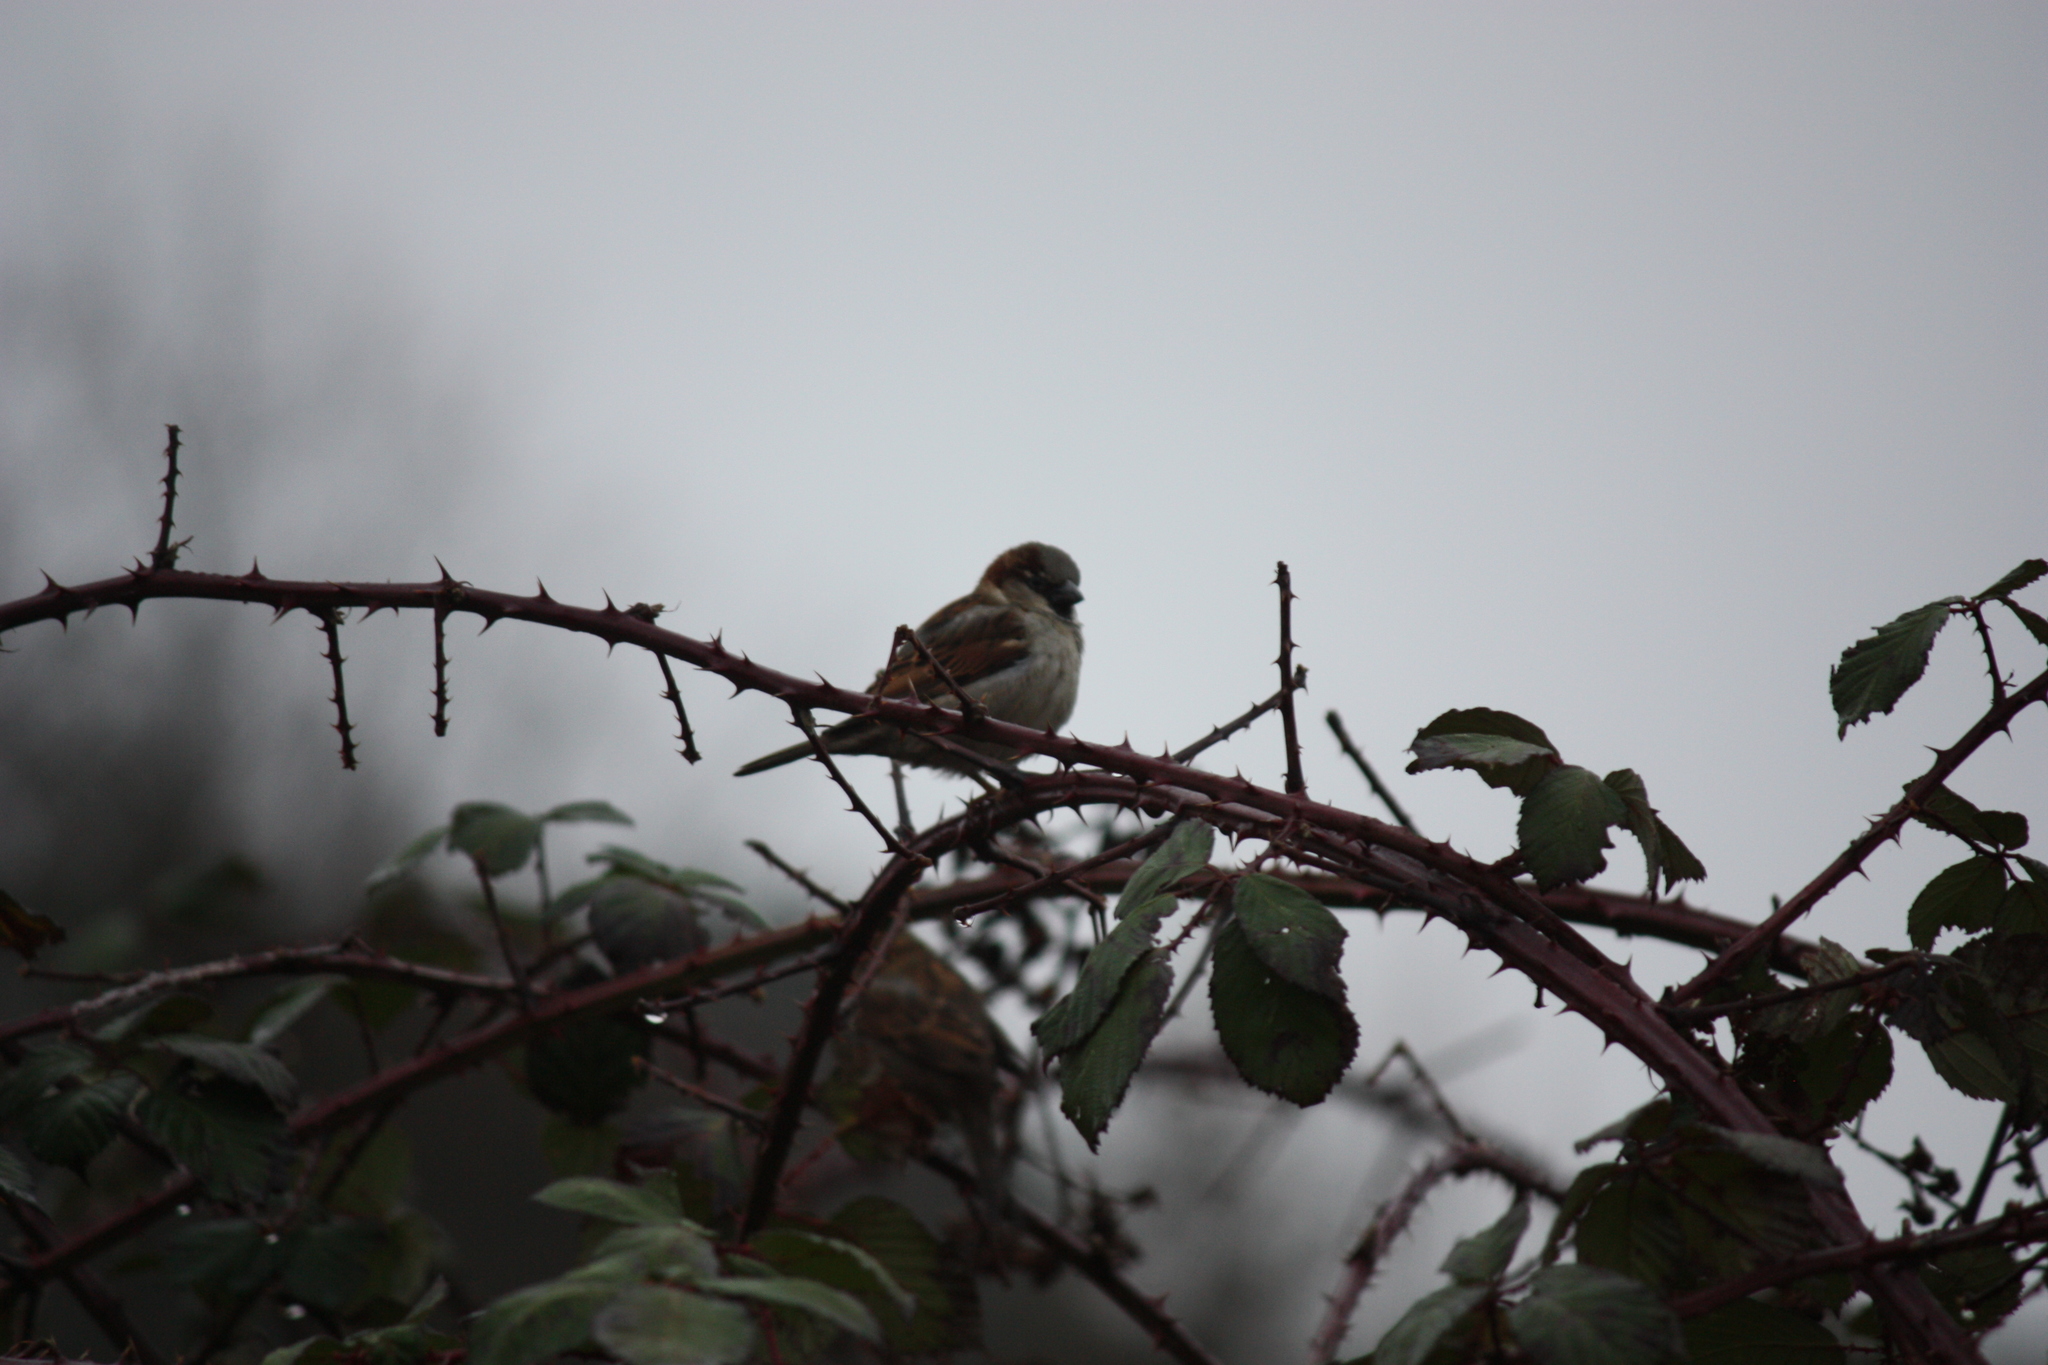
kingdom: Animalia
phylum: Chordata
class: Aves
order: Passeriformes
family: Passeridae
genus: Passer
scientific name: Passer domesticus
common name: House sparrow
